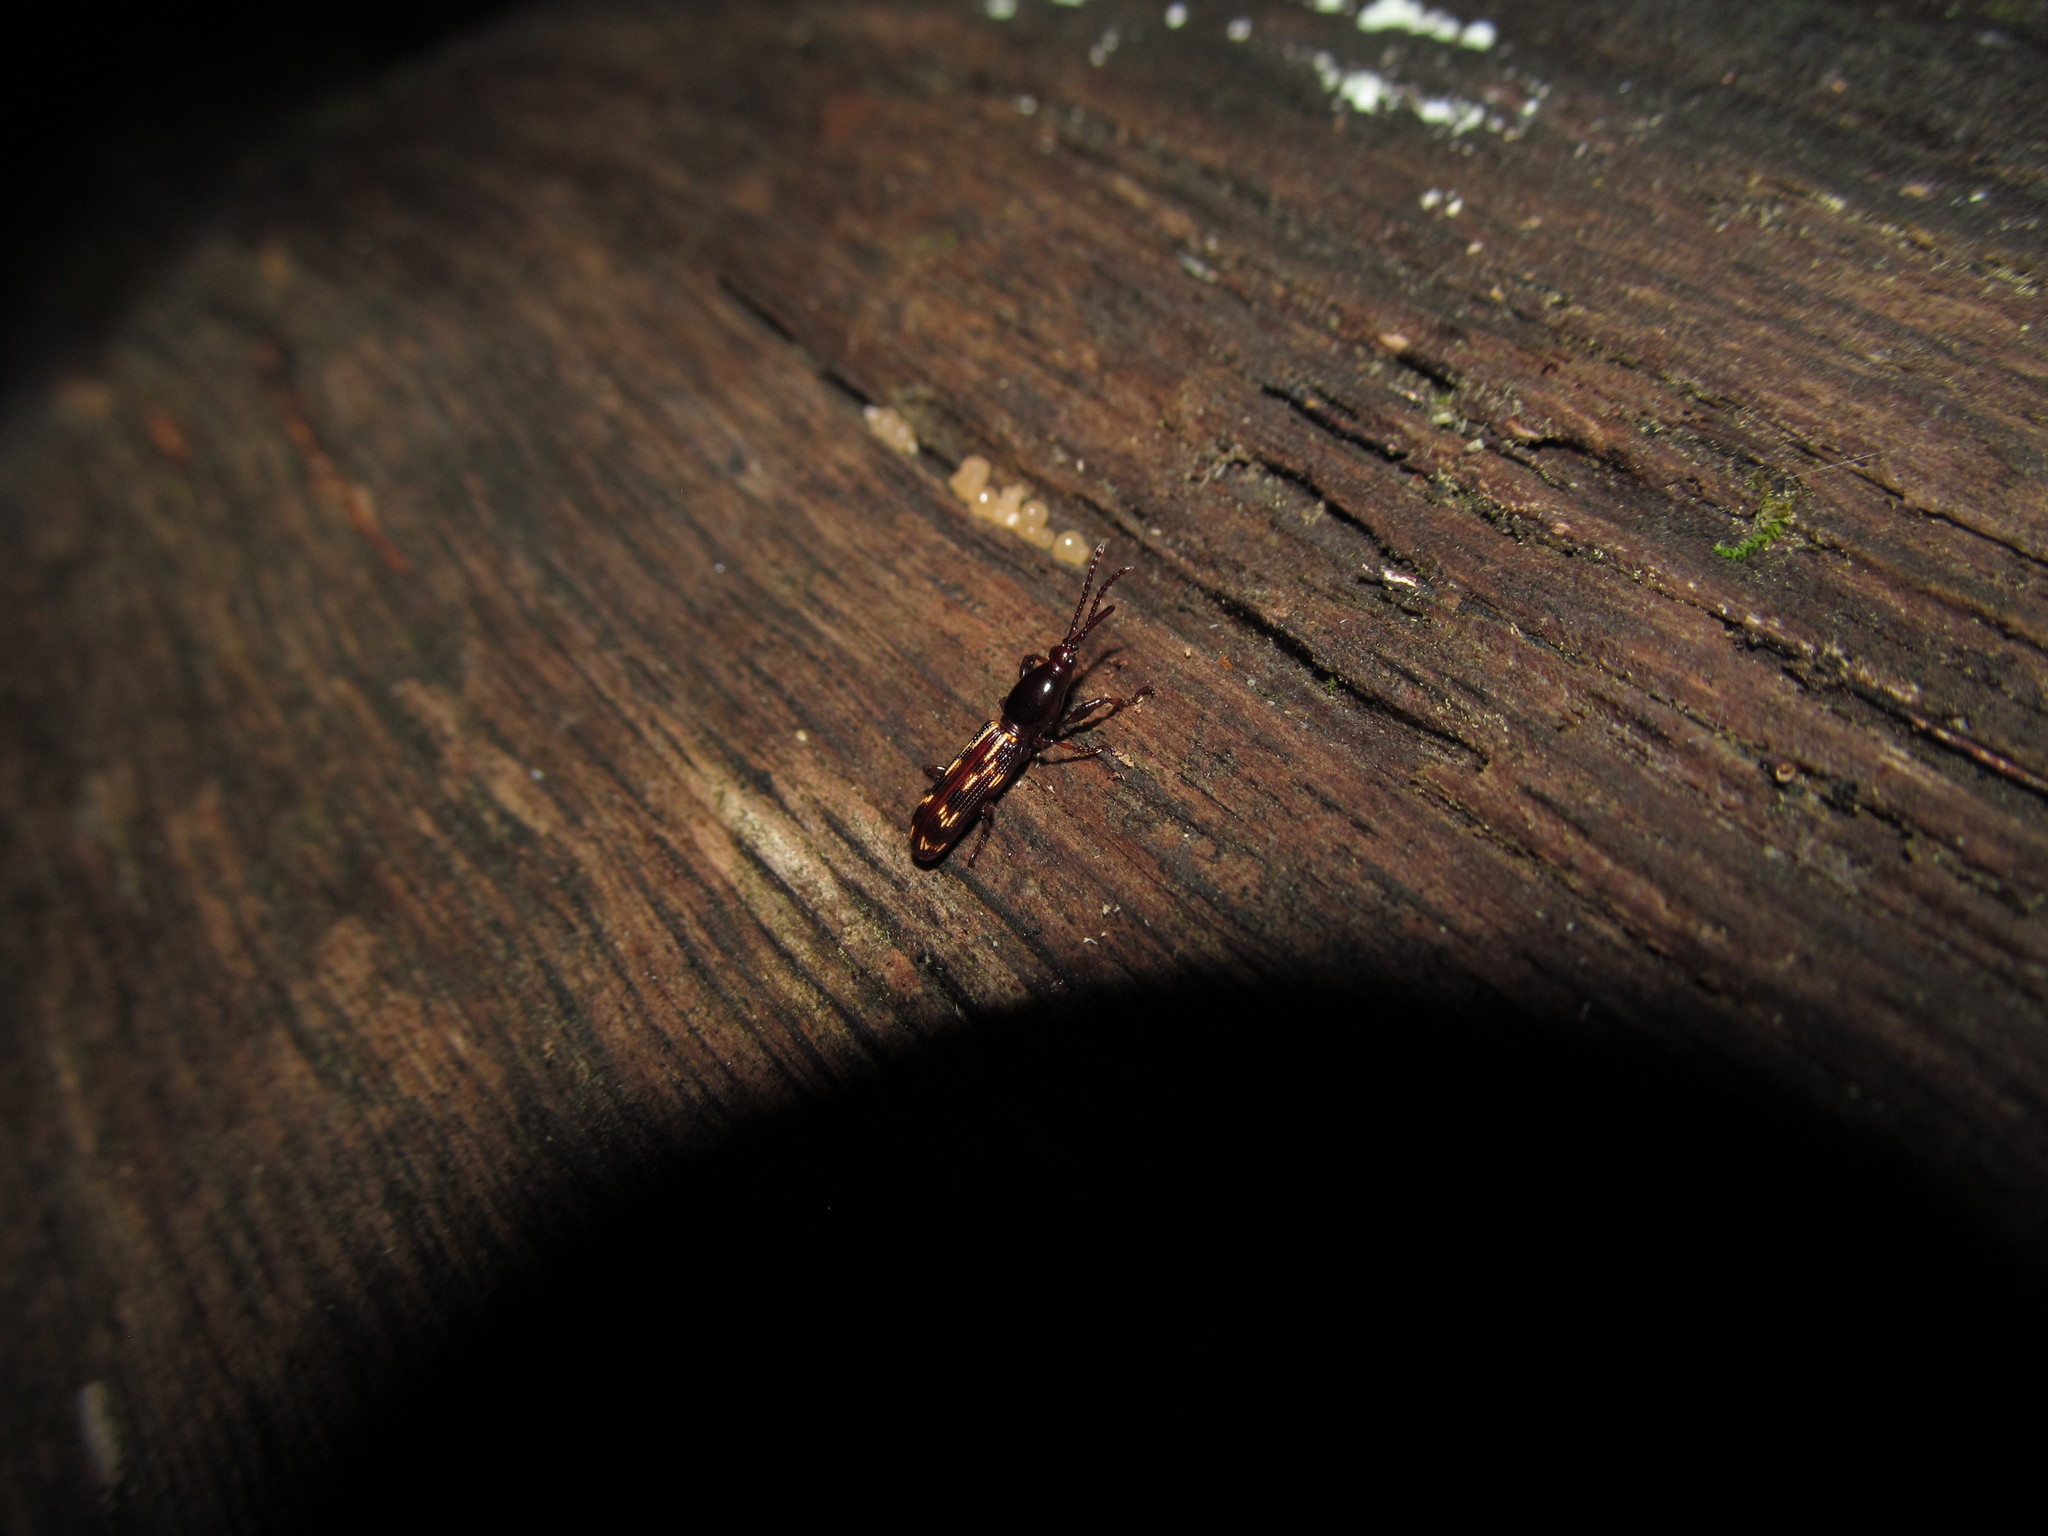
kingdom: Animalia
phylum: Arthropoda
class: Insecta
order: Coleoptera
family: Brentidae
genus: Arrenodes
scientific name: Arrenodes minutus
